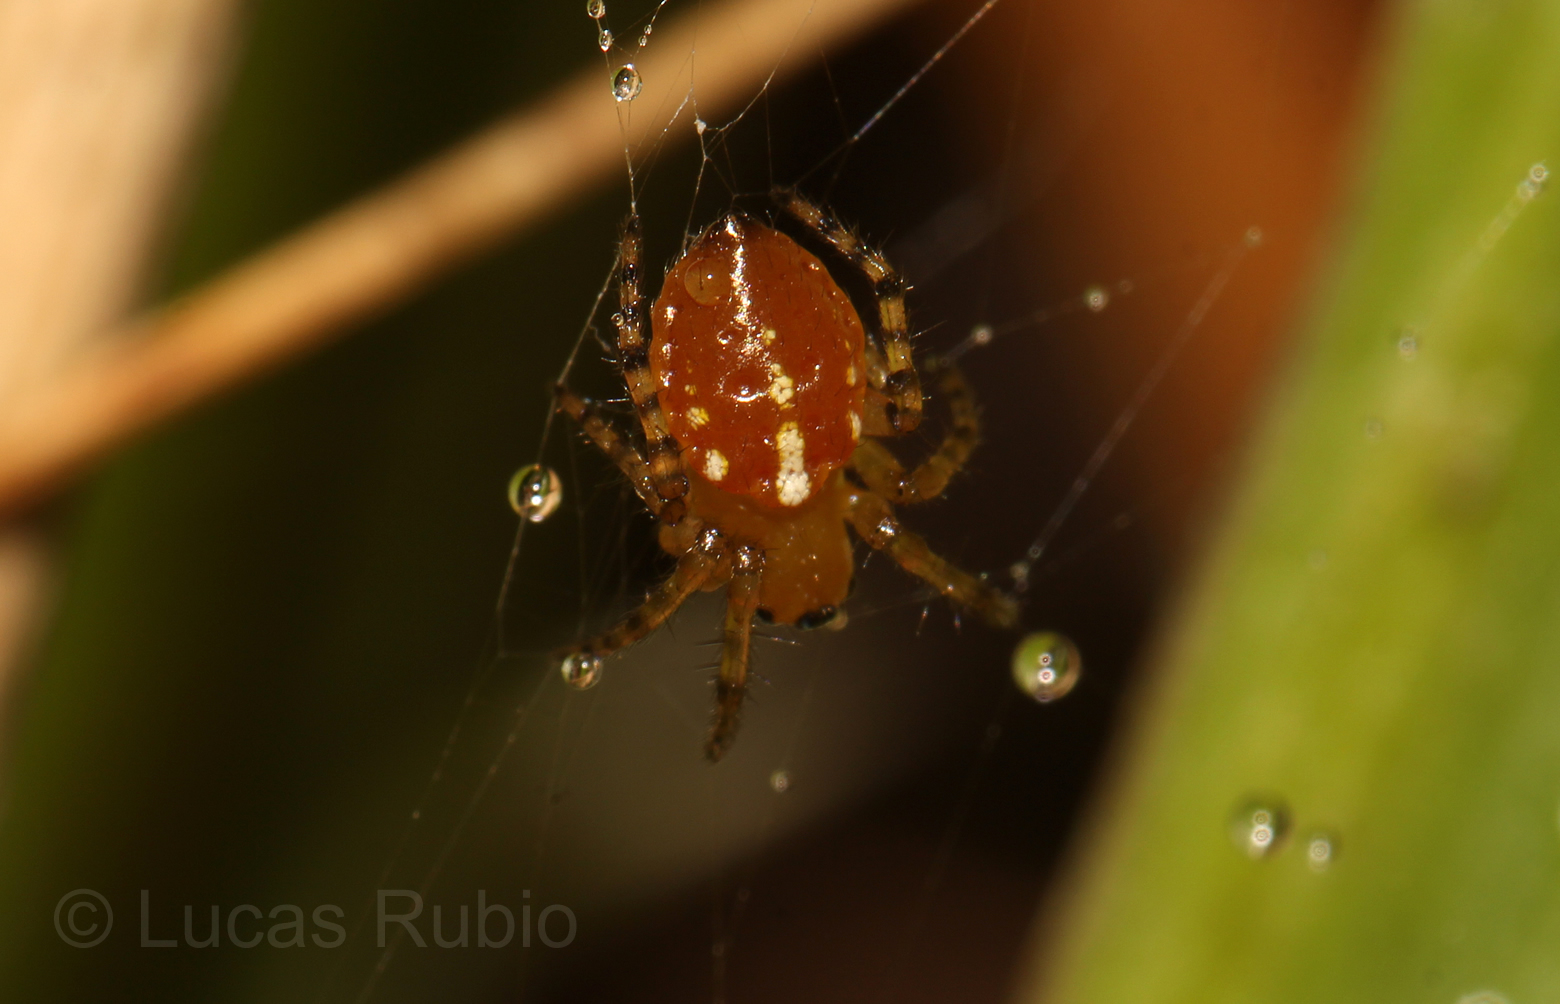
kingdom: Animalia
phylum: Arthropoda
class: Arachnida
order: Araneae
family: Araneidae
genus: Alpaida
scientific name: Alpaida quadrilorata
